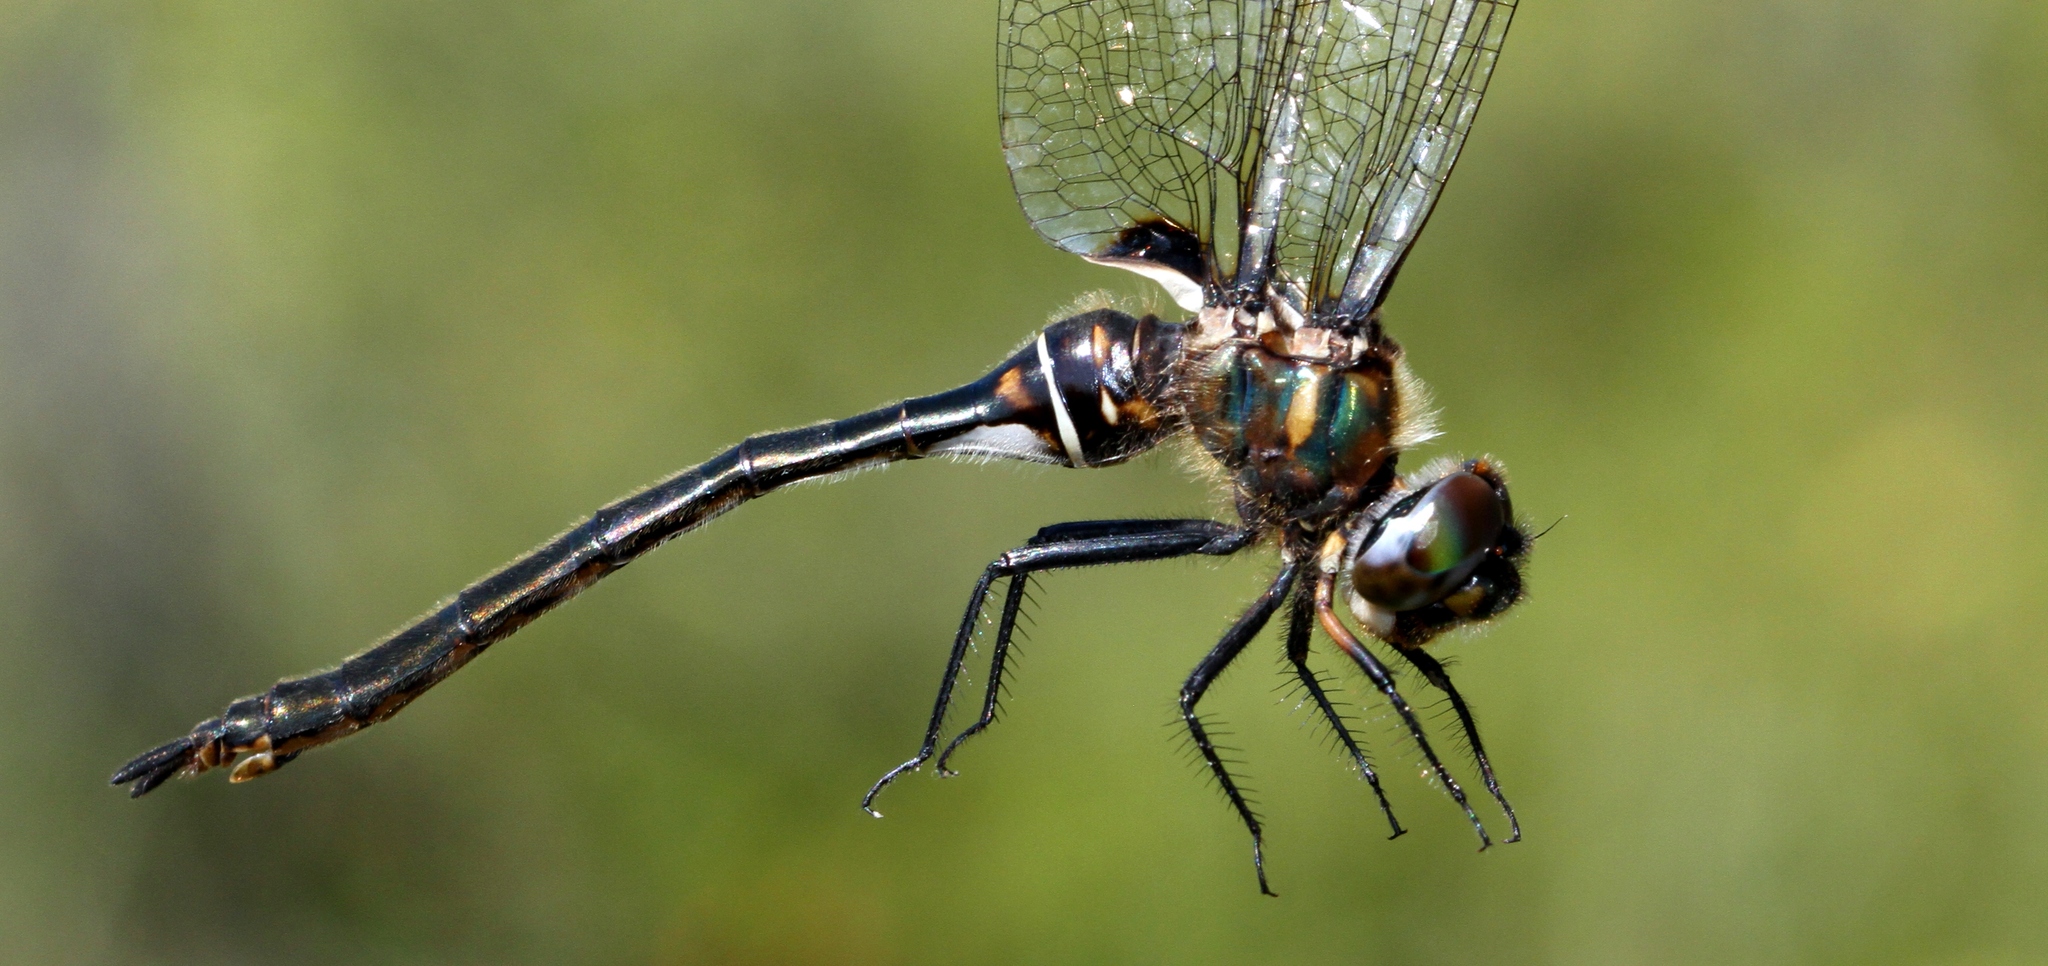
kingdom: Animalia
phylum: Arthropoda
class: Insecta
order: Odonata
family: Corduliidae
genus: Somatochlora
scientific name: Somatochlora franklini
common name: Delicate emerald
